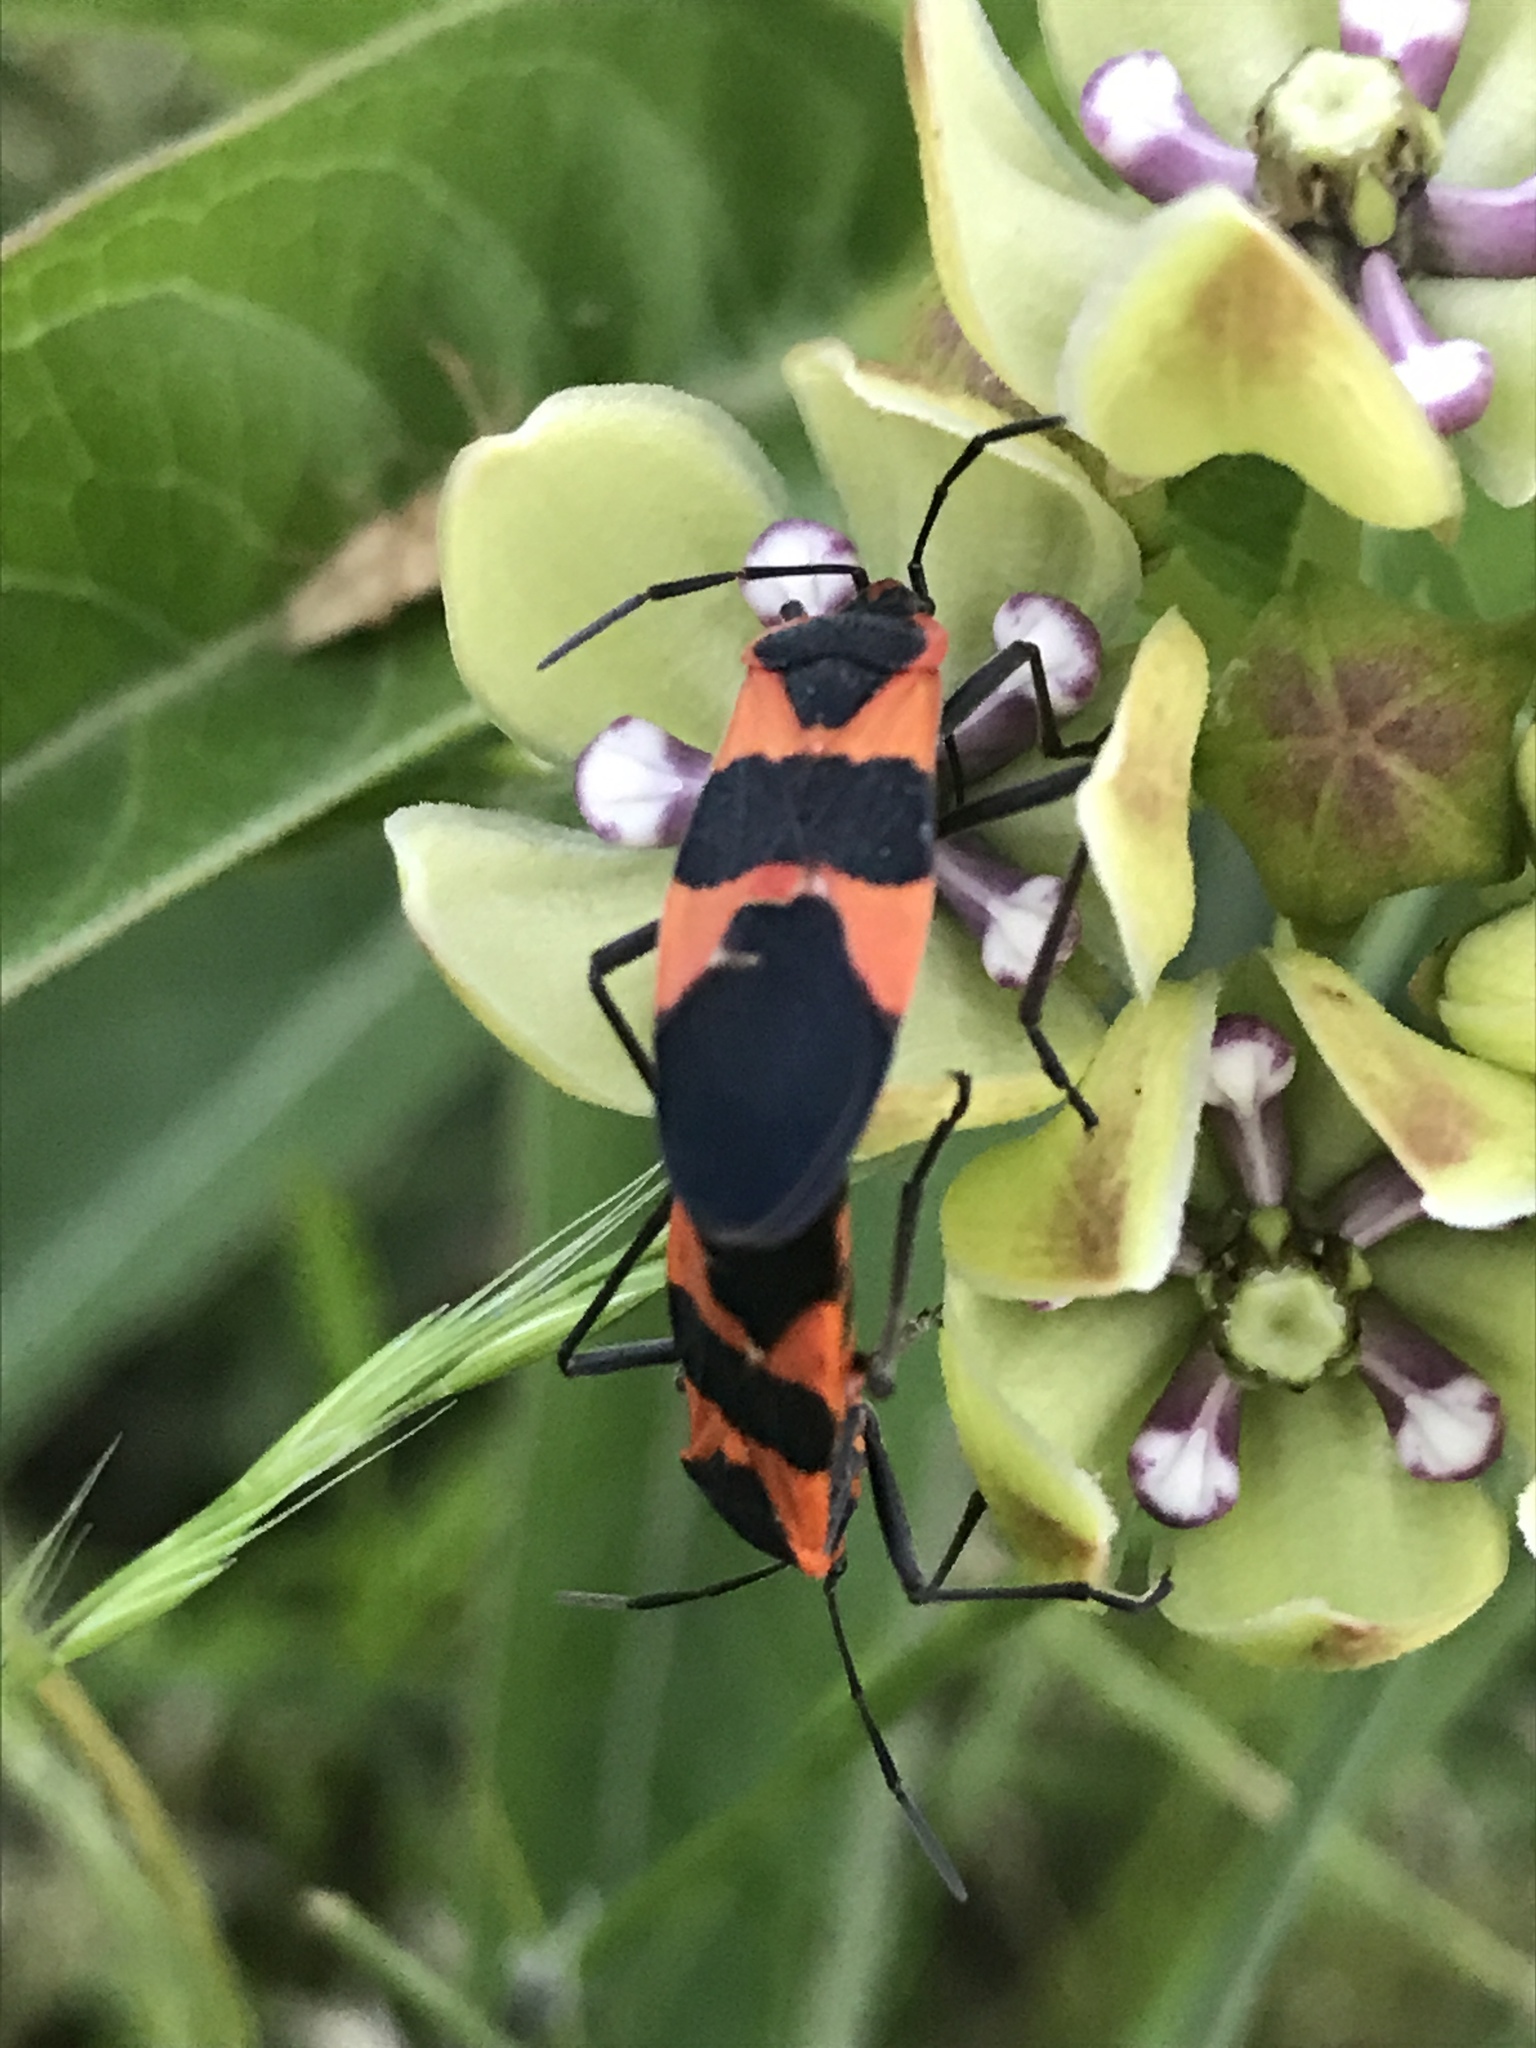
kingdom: Animalia
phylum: Arthropoda
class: Insecta
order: Hemiptera
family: Lygaeidae
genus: Oncopeltus
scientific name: Oncopeltus fasciatus
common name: Large milkweed bug
